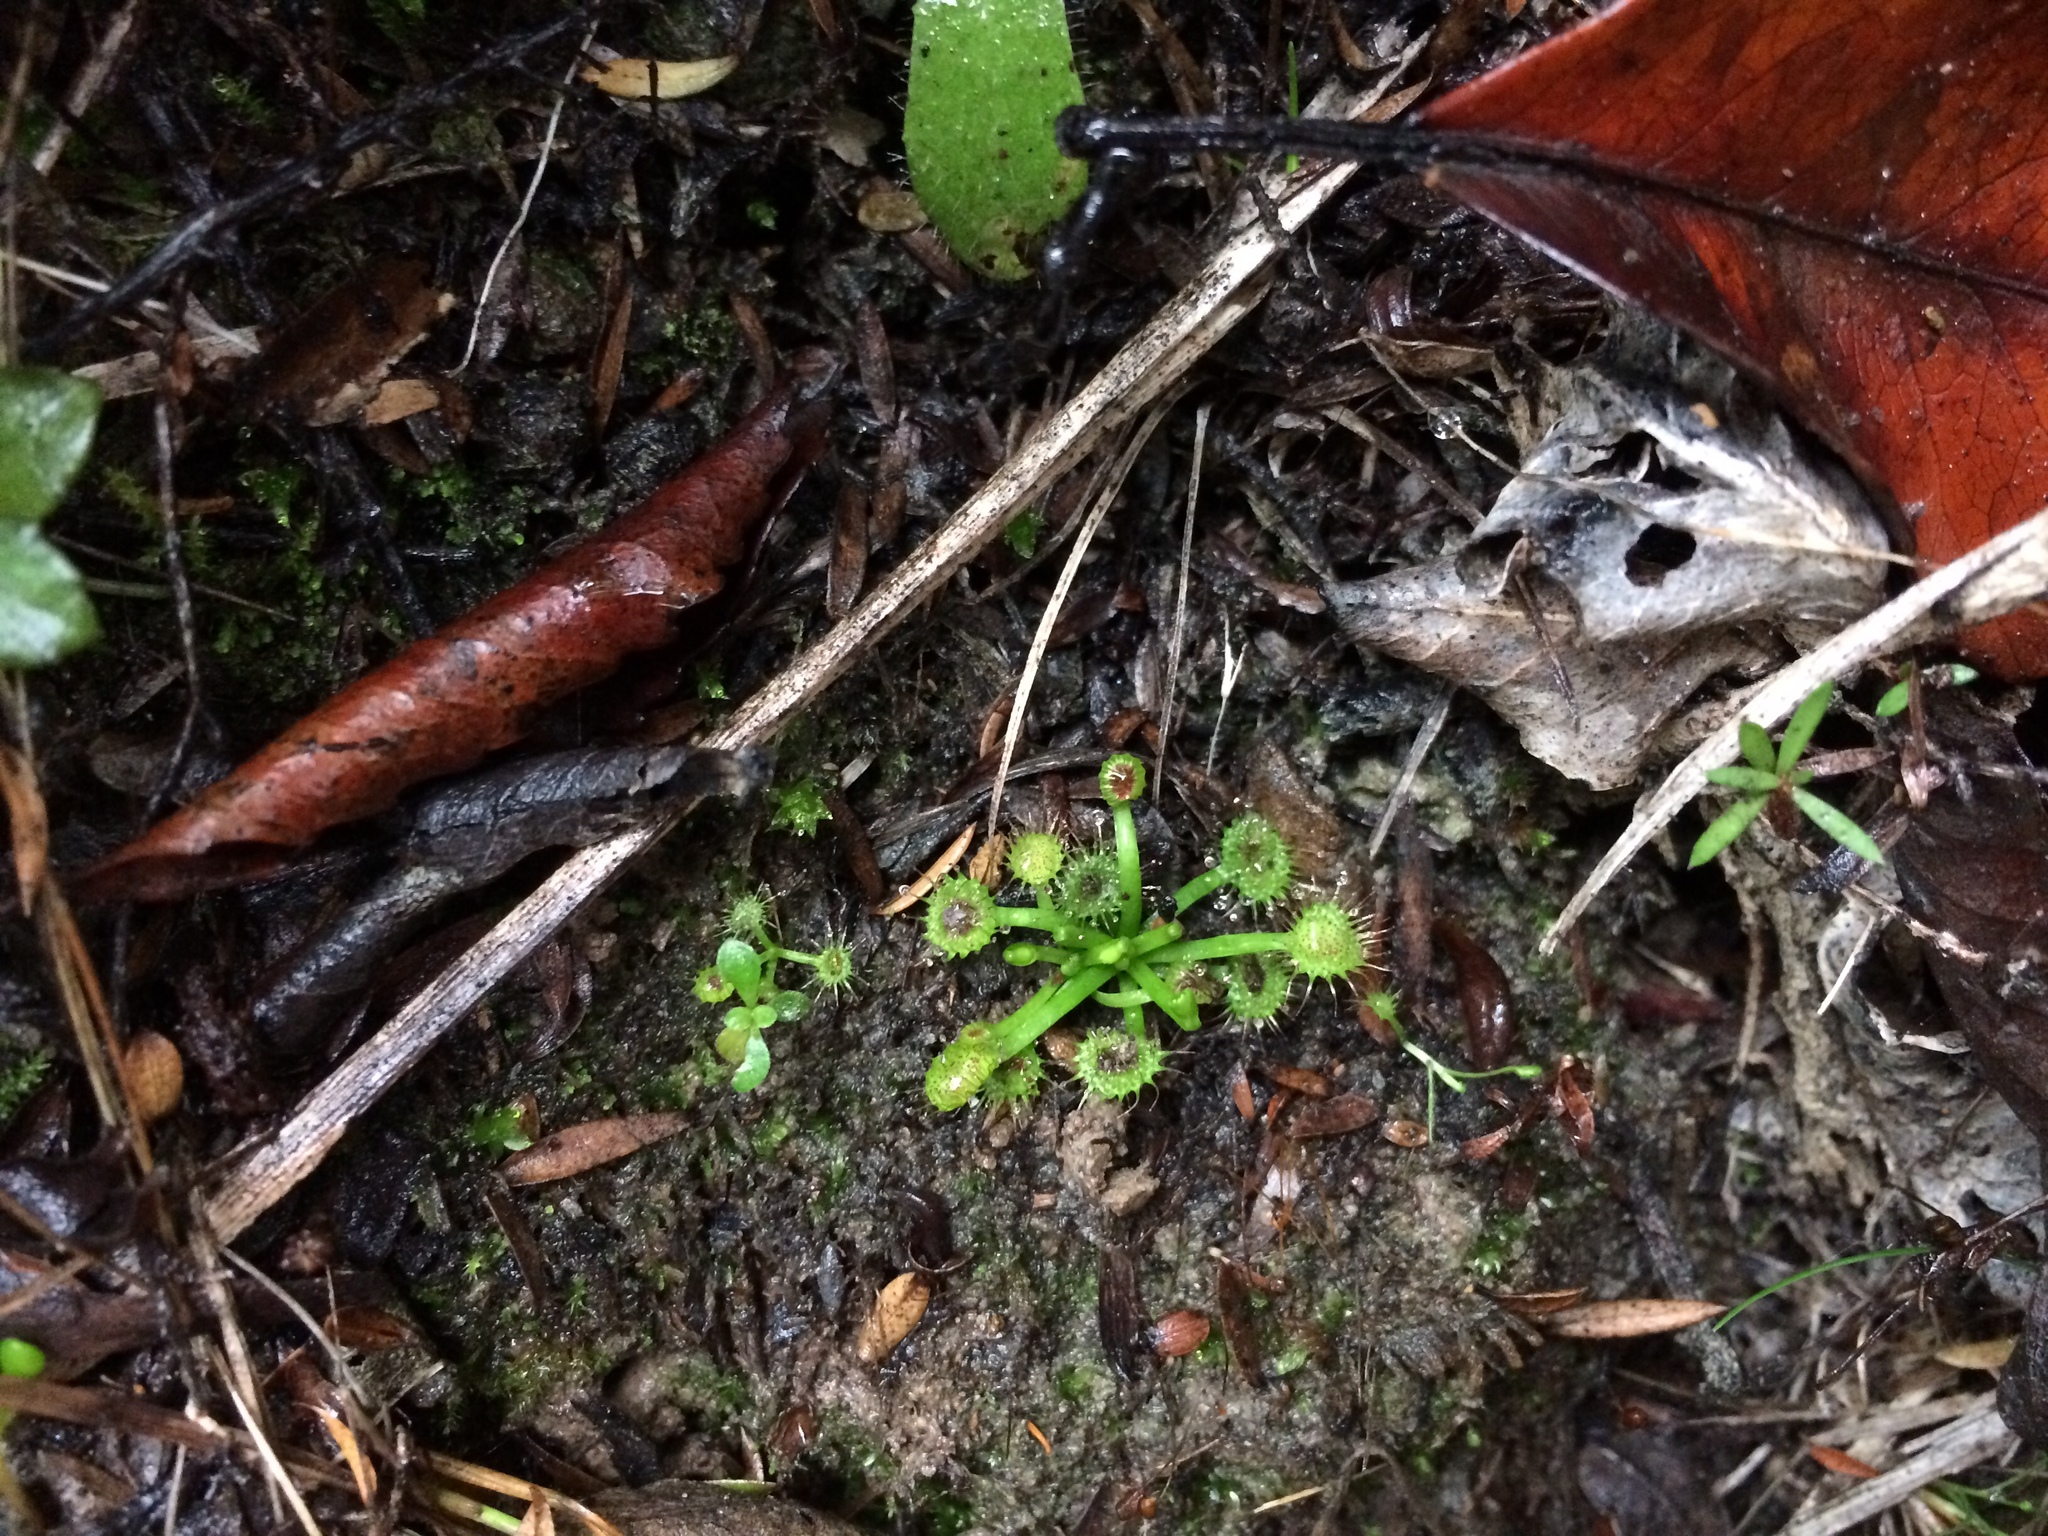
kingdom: Plantae
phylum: Tracheophyta
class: Magnoliopsida
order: Caryophyllales
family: Droseraceae
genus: Drosera
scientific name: Drosera peltata
